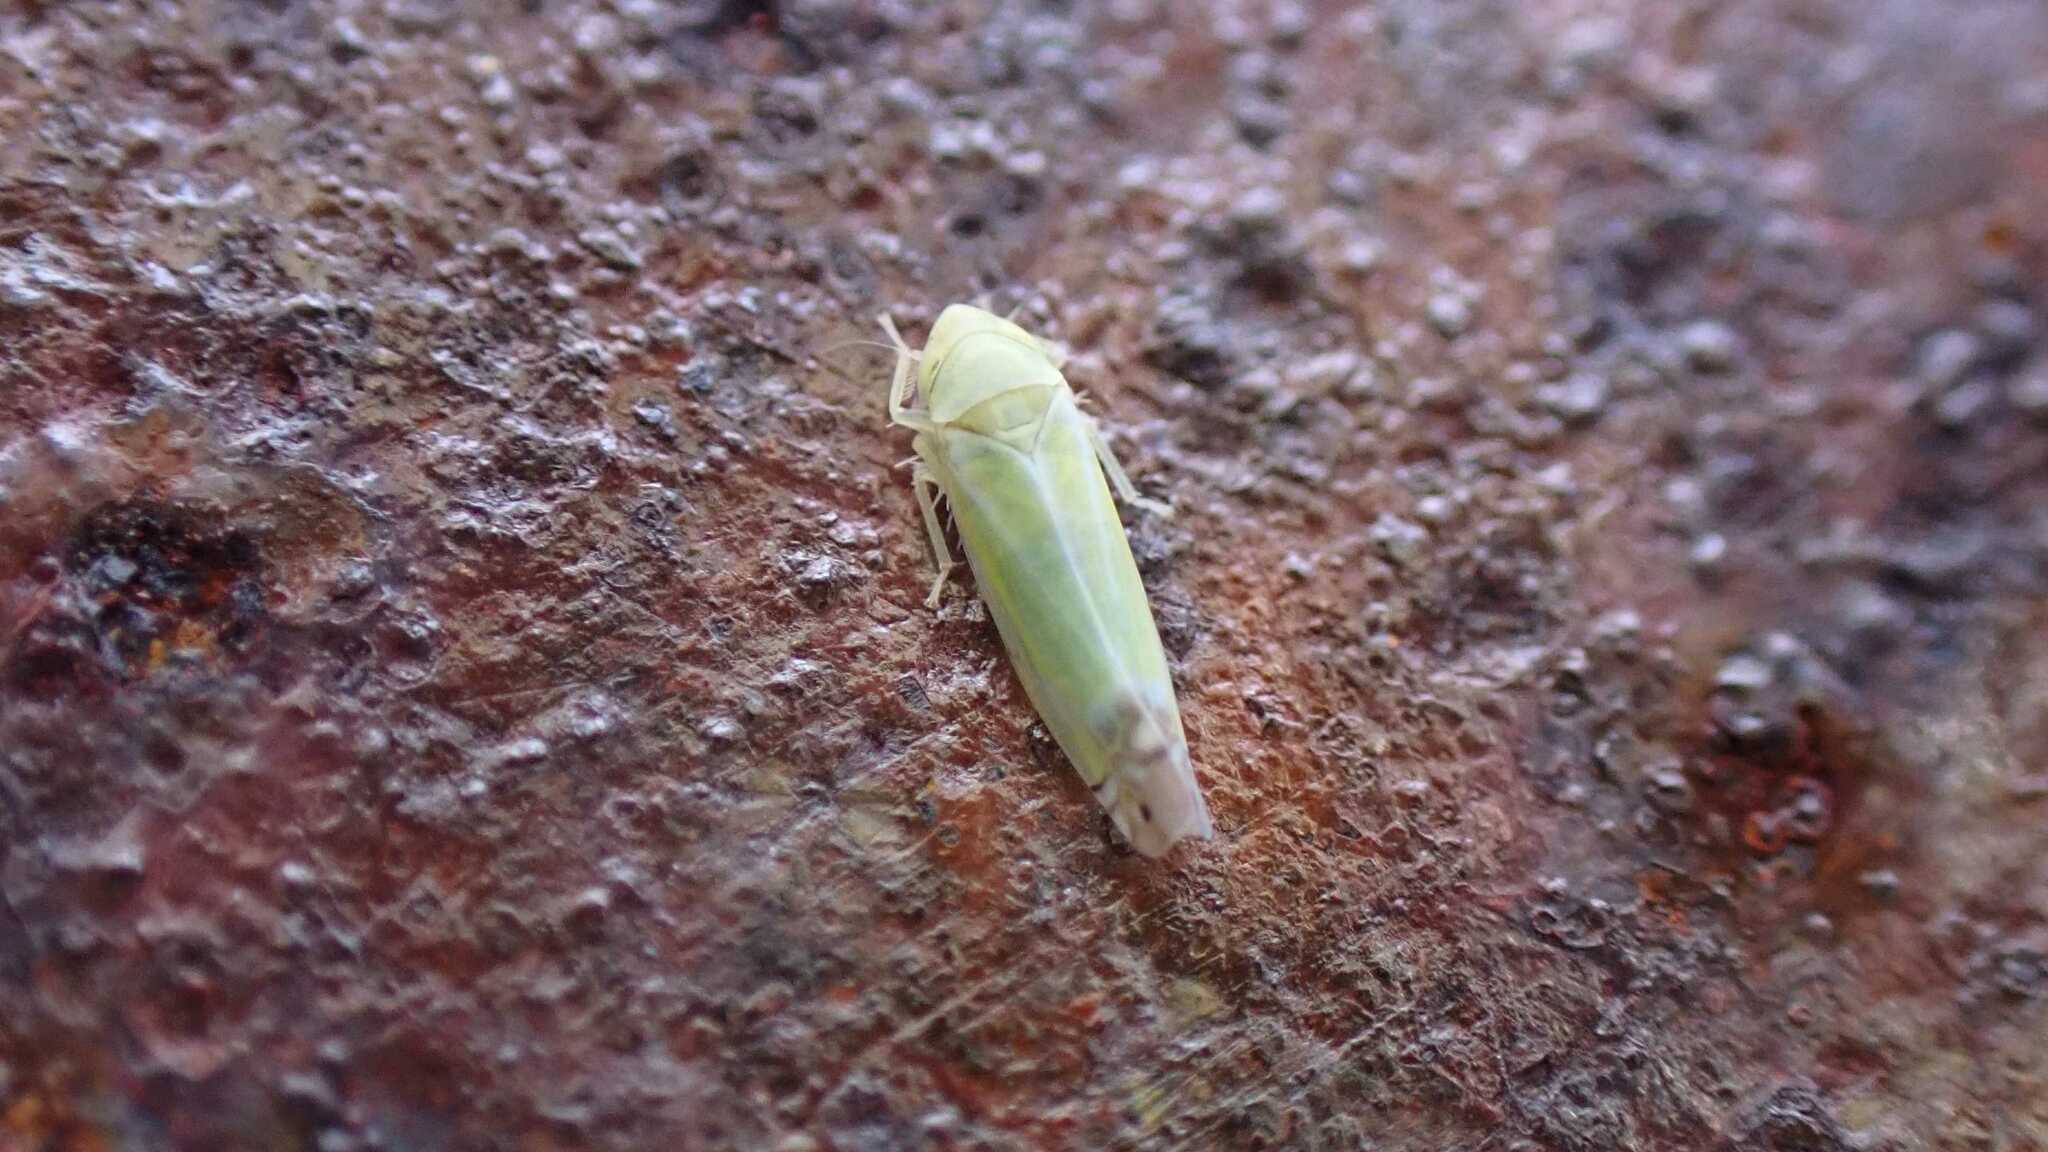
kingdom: Animalia
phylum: Arthropoda
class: Insecta
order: Hemiptera
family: Cicadellidae
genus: Zyginella
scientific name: Zyginella pulchra
